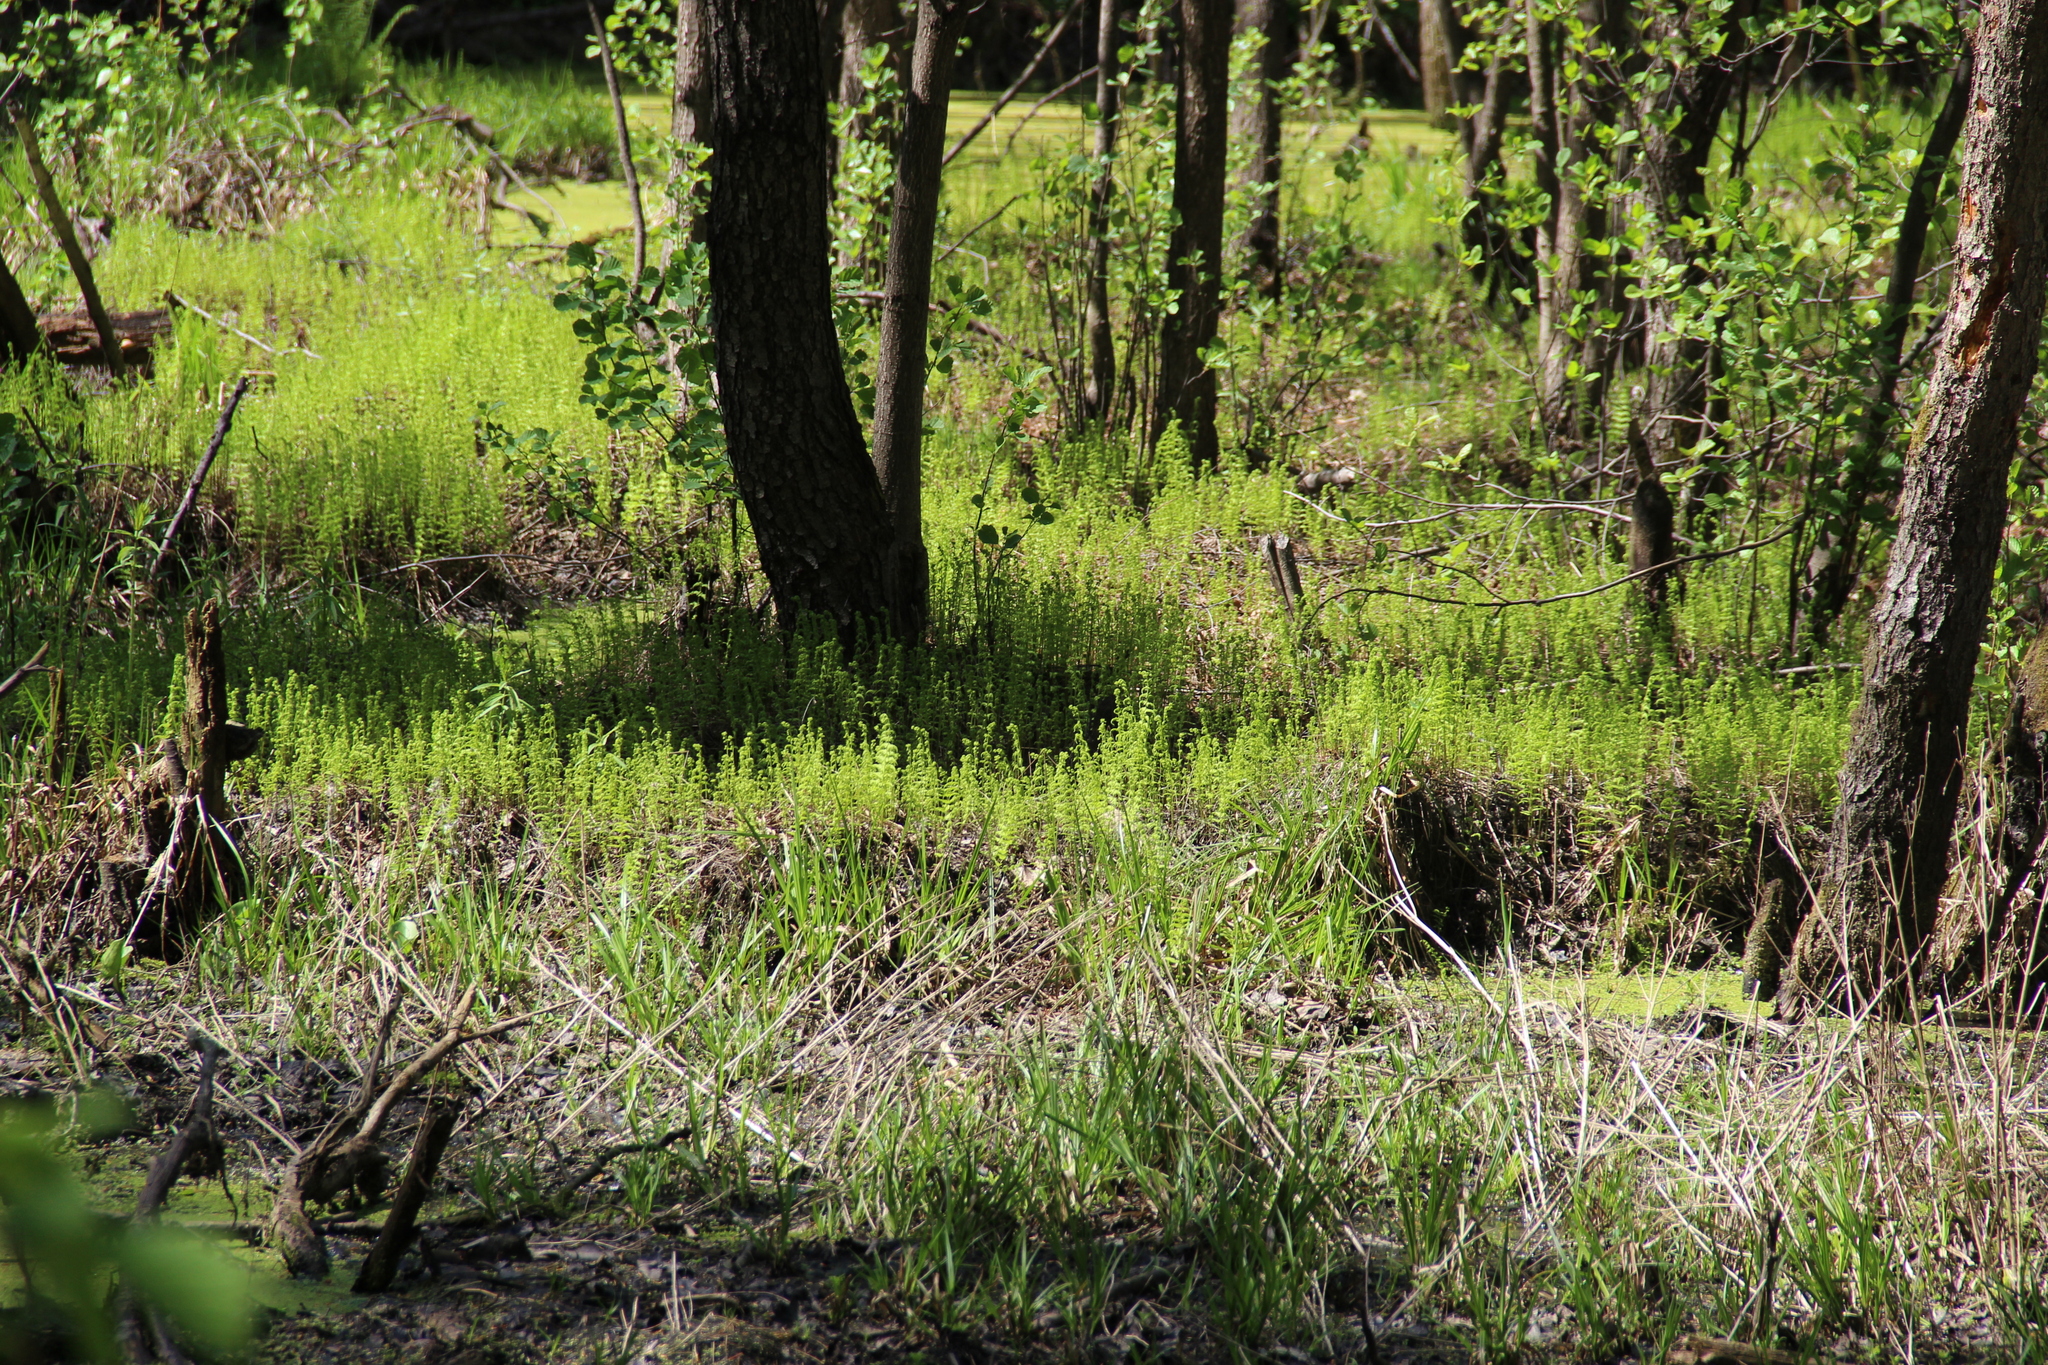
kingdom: Plantae
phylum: Tracheophyta
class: Polypodiopsida
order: Polypodiales
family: Thelypteridaceae
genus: Thelypteris
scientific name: Thelypteris palustris
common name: Marsh fern
